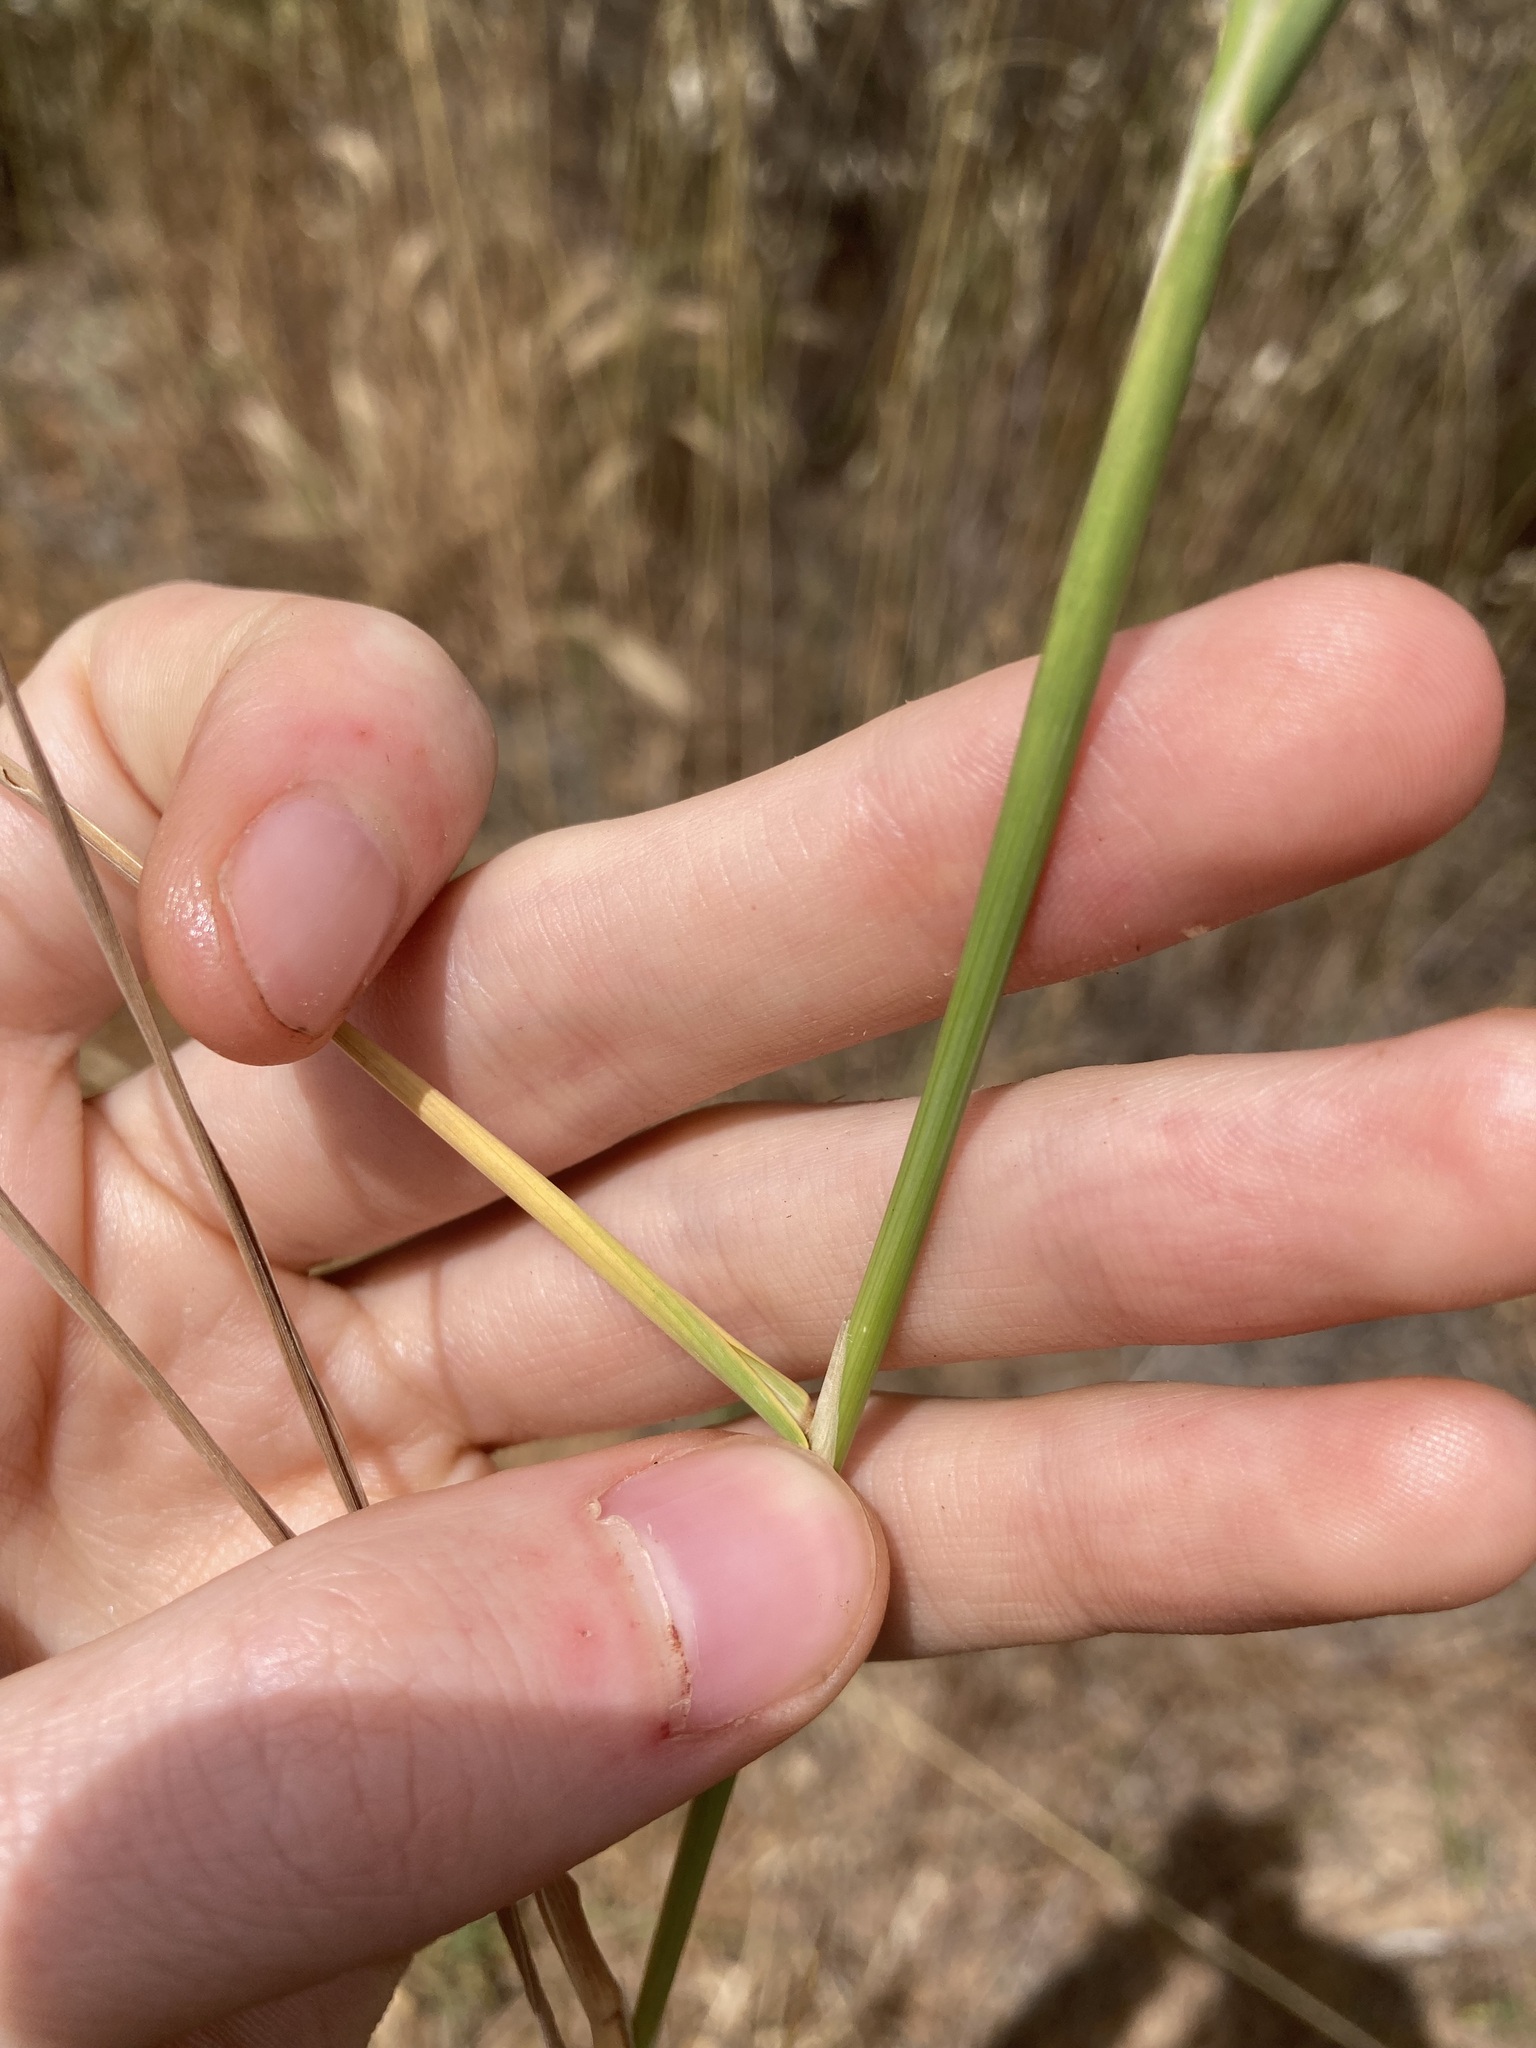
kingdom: Plantae
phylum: Tracheophyta
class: Liliopsida
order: Poales
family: Poaceae
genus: Polypogon
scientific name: Polypogon monspeliensis
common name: Annual rabbitsfoot grass
